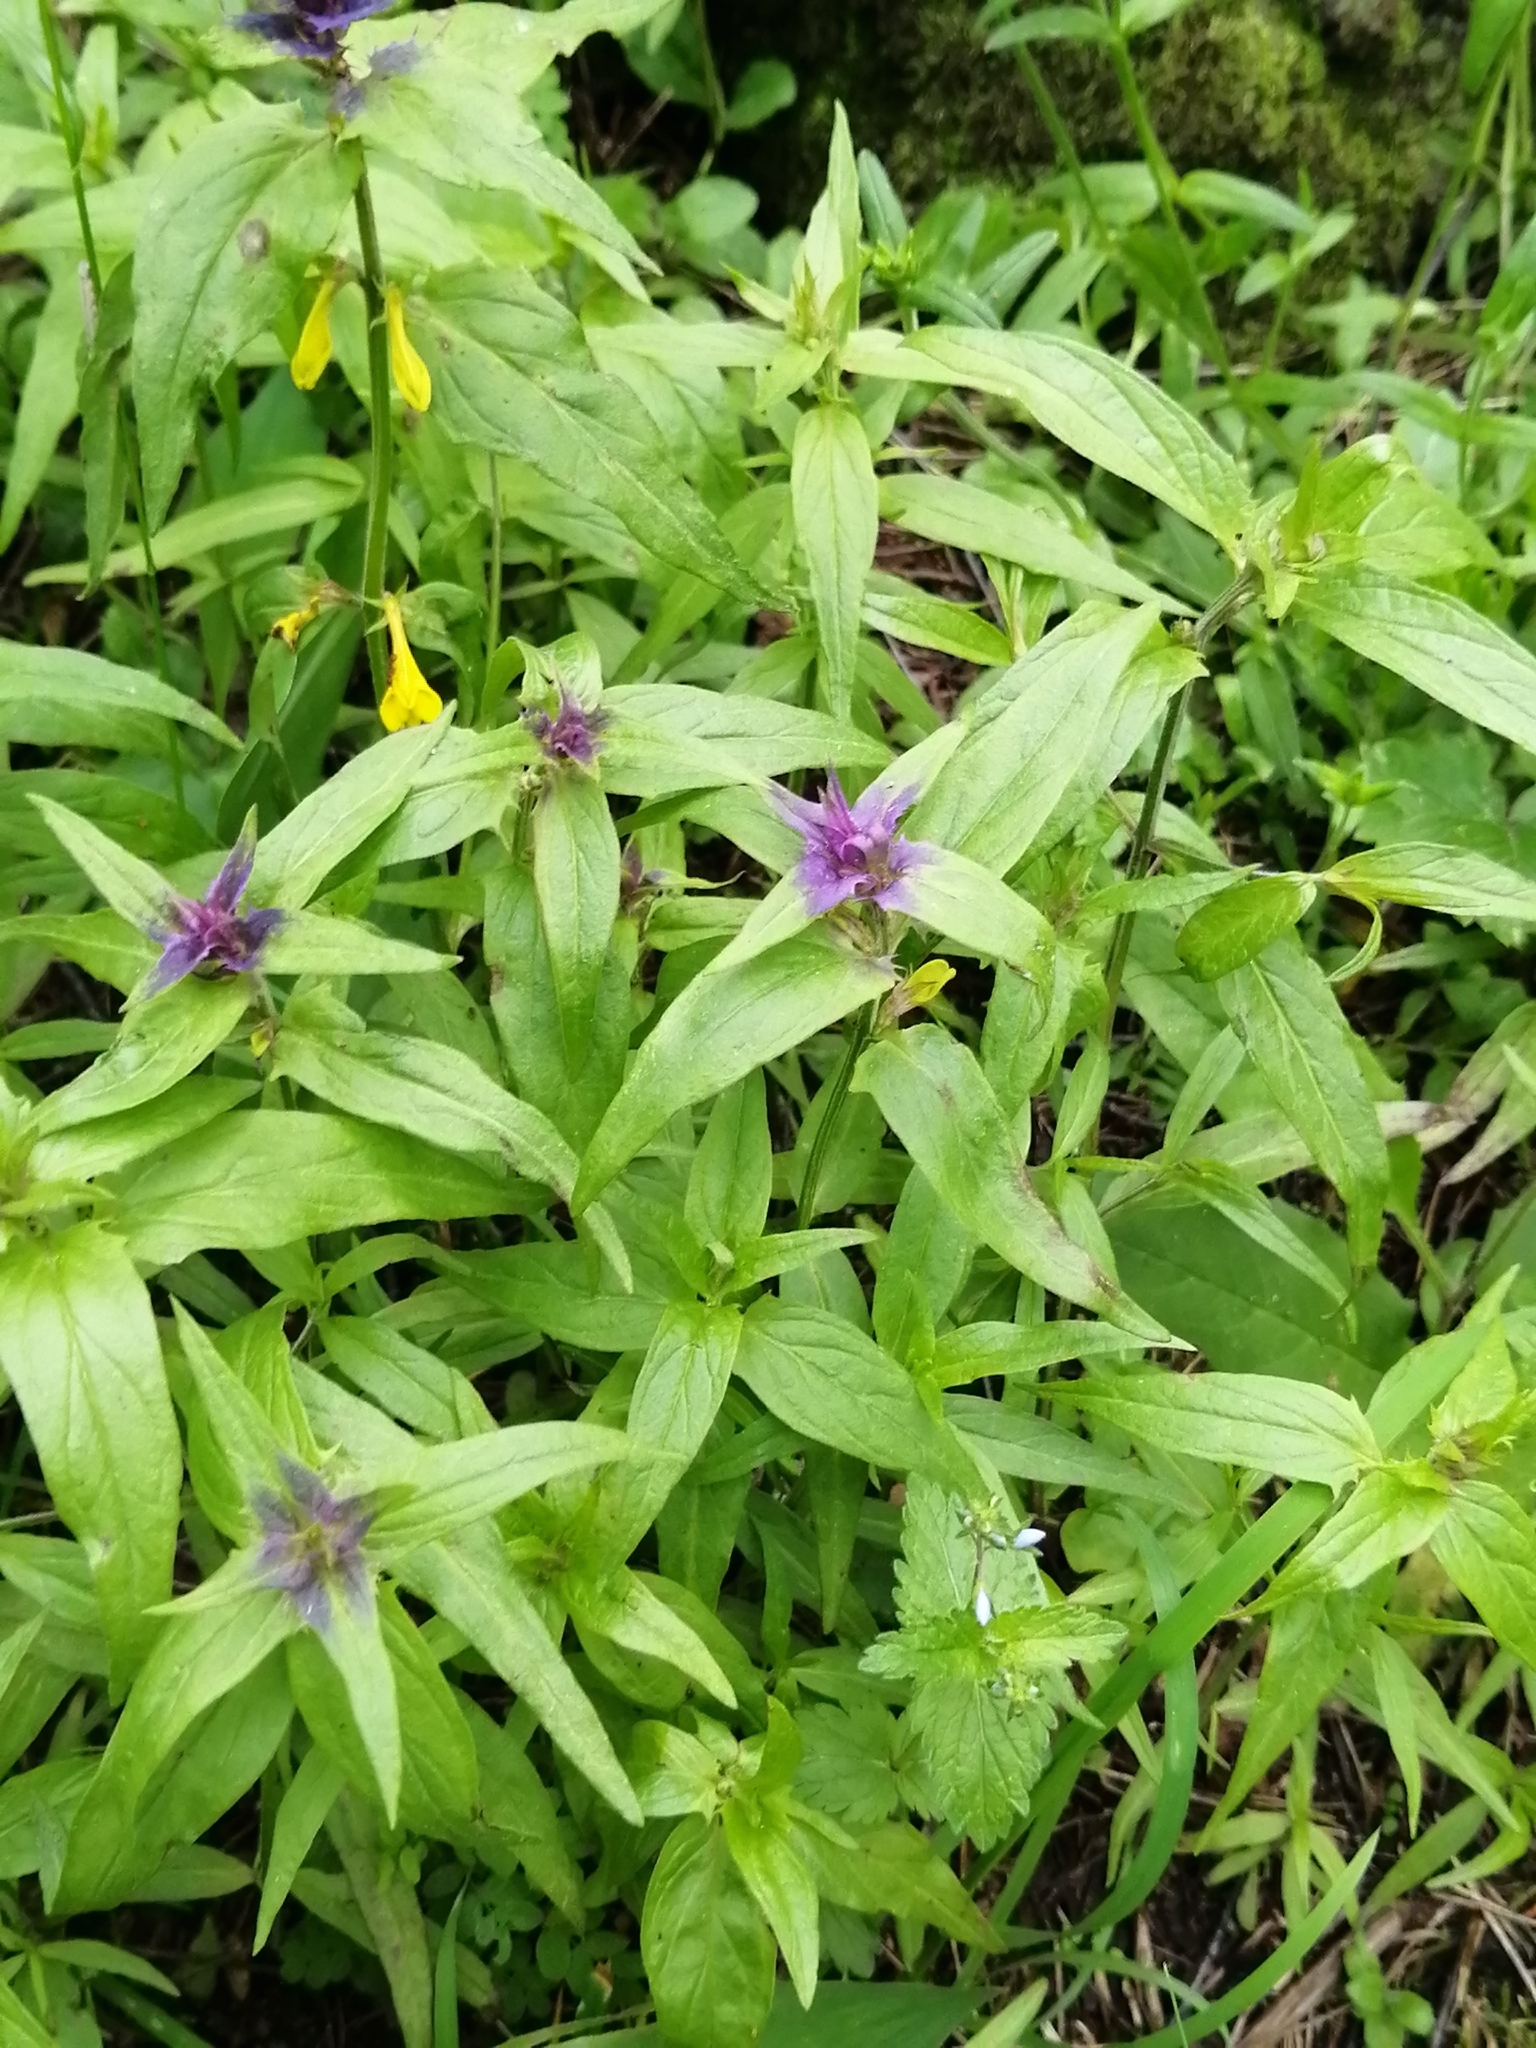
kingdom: Plantae
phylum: Tracheophyta
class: Magnoliopsida
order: Lamiales
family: Orobanchaceae
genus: Melampyrum
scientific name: Melampyrum nemorosum
